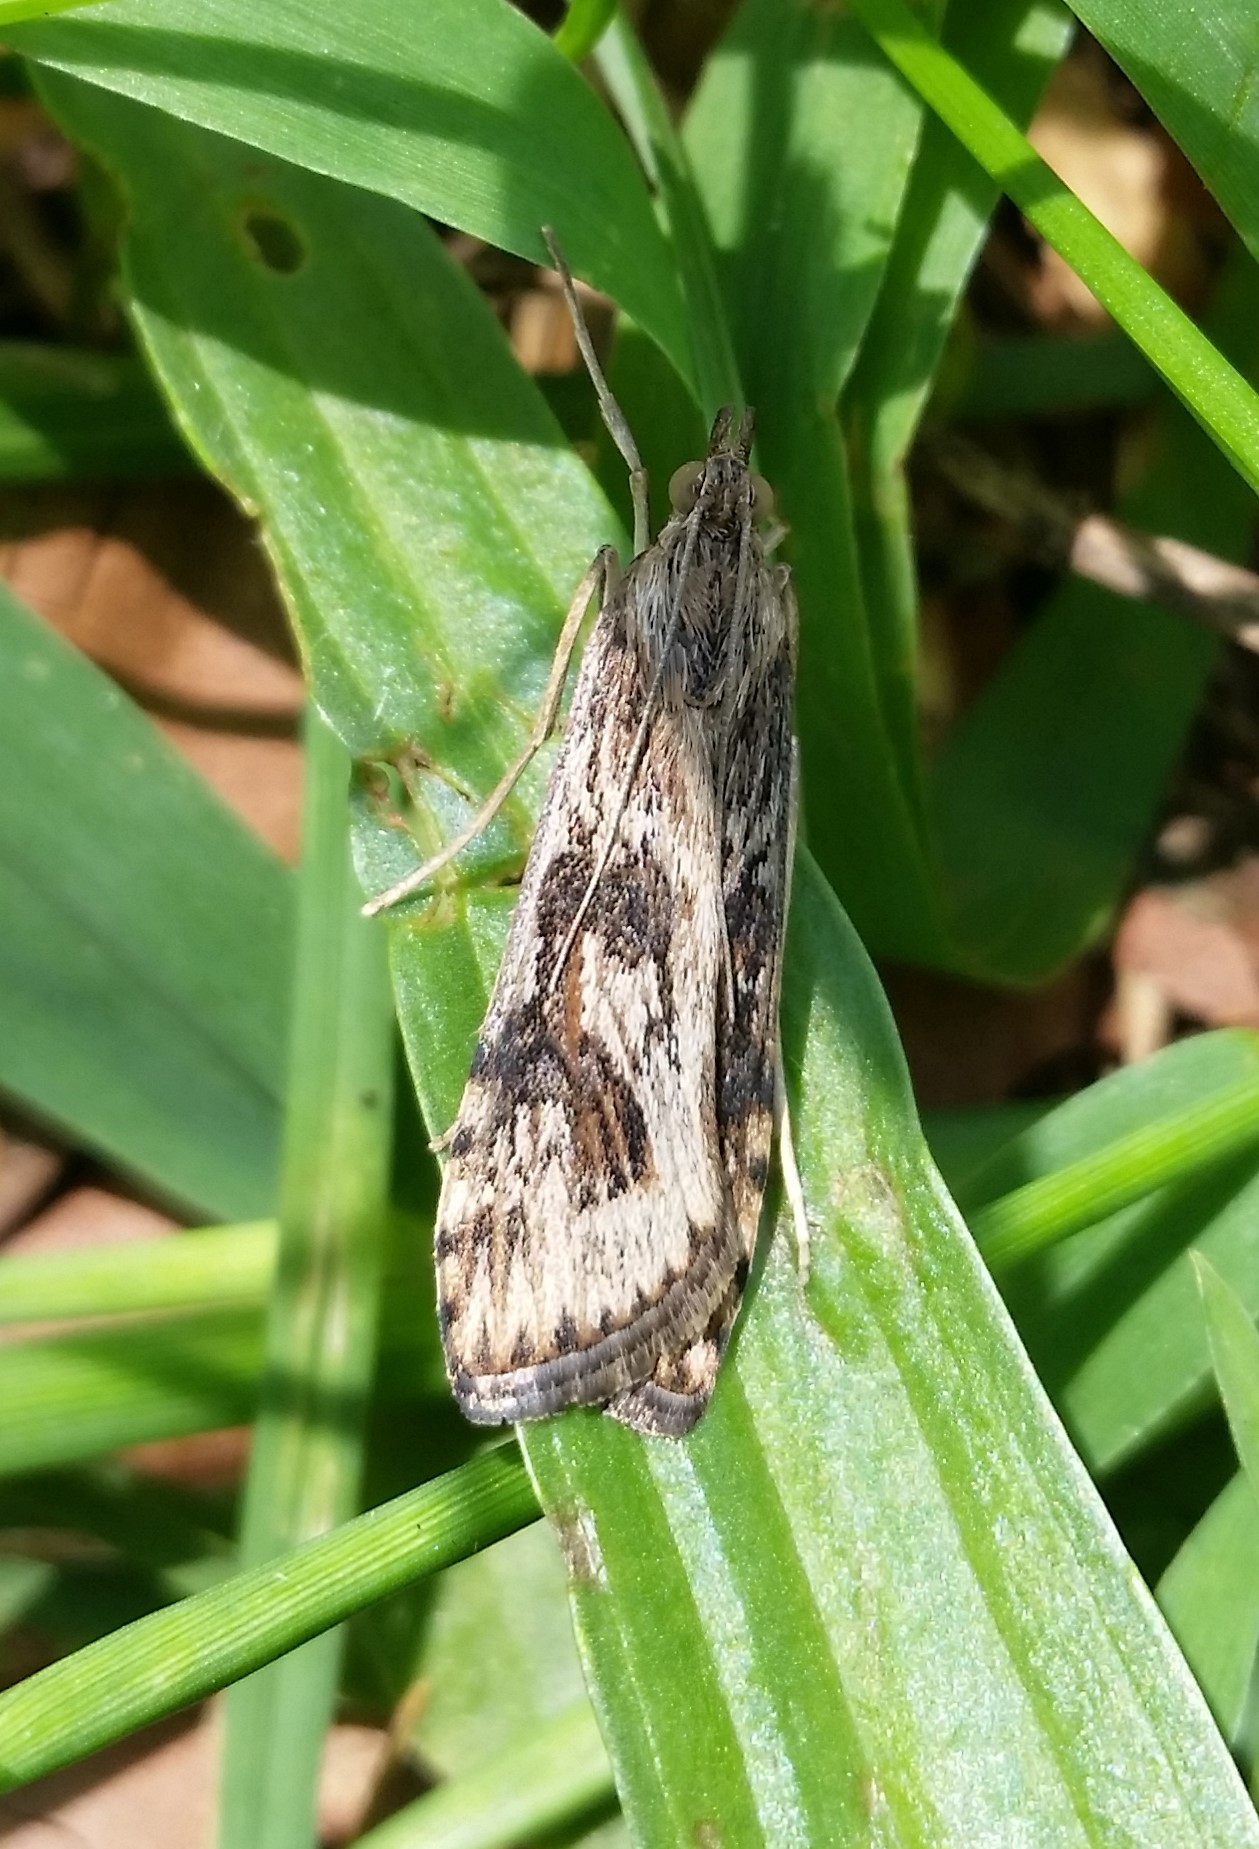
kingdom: Animalia
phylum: Arthropoda
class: Insecta
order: Lepidoptera
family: Crambidae
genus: Nomophila
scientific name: Nomophila nearctica
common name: American rush veneer
